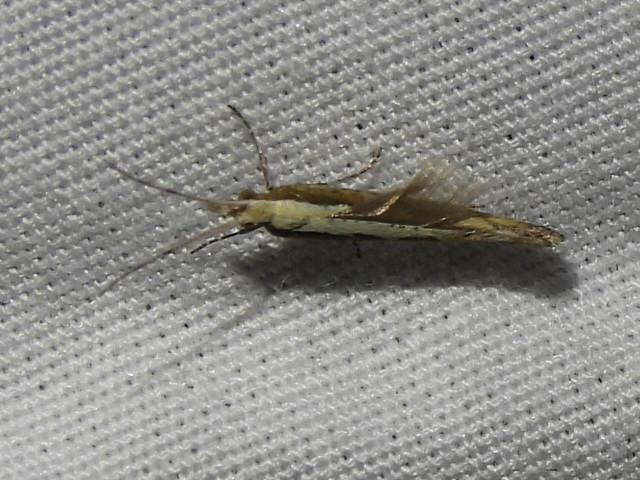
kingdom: Animalia
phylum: Arthropoda
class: Insecta
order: Lepidoptera
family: Plutellidae
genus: Plutella
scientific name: Plutella xylostella
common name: Diamond-back moth
